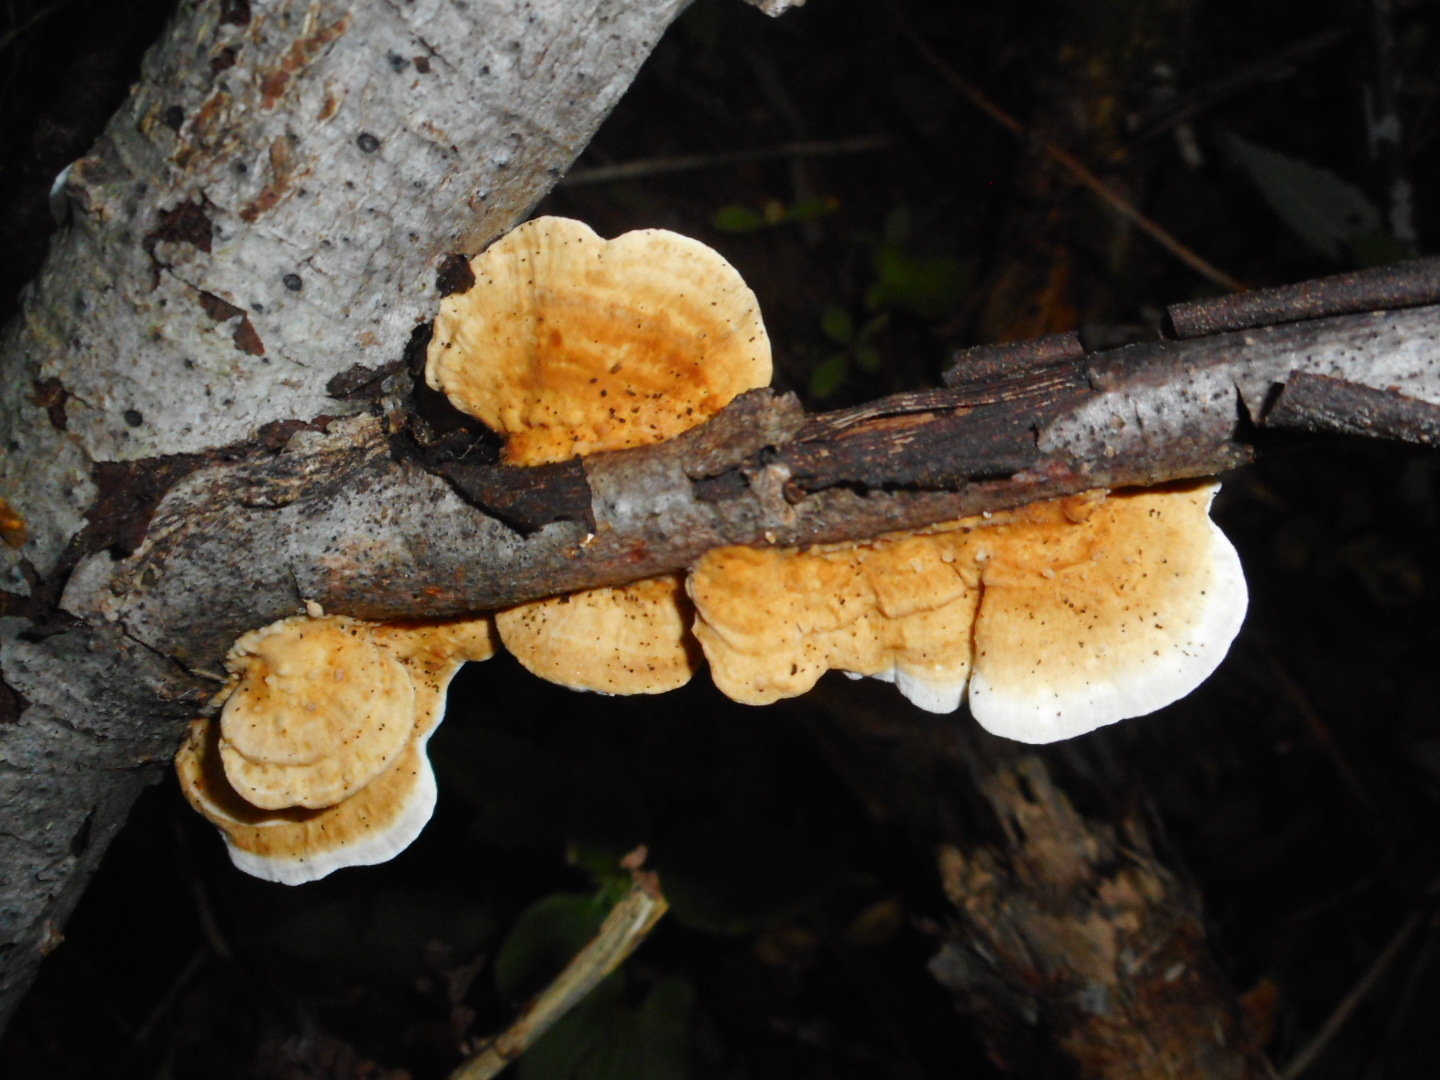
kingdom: Fungi
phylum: Basidiomycota
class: Agaricomycetes
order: Polyporales
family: Polyporaceae
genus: Trametes
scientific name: Trametes ochracea
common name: Ochre bracket
